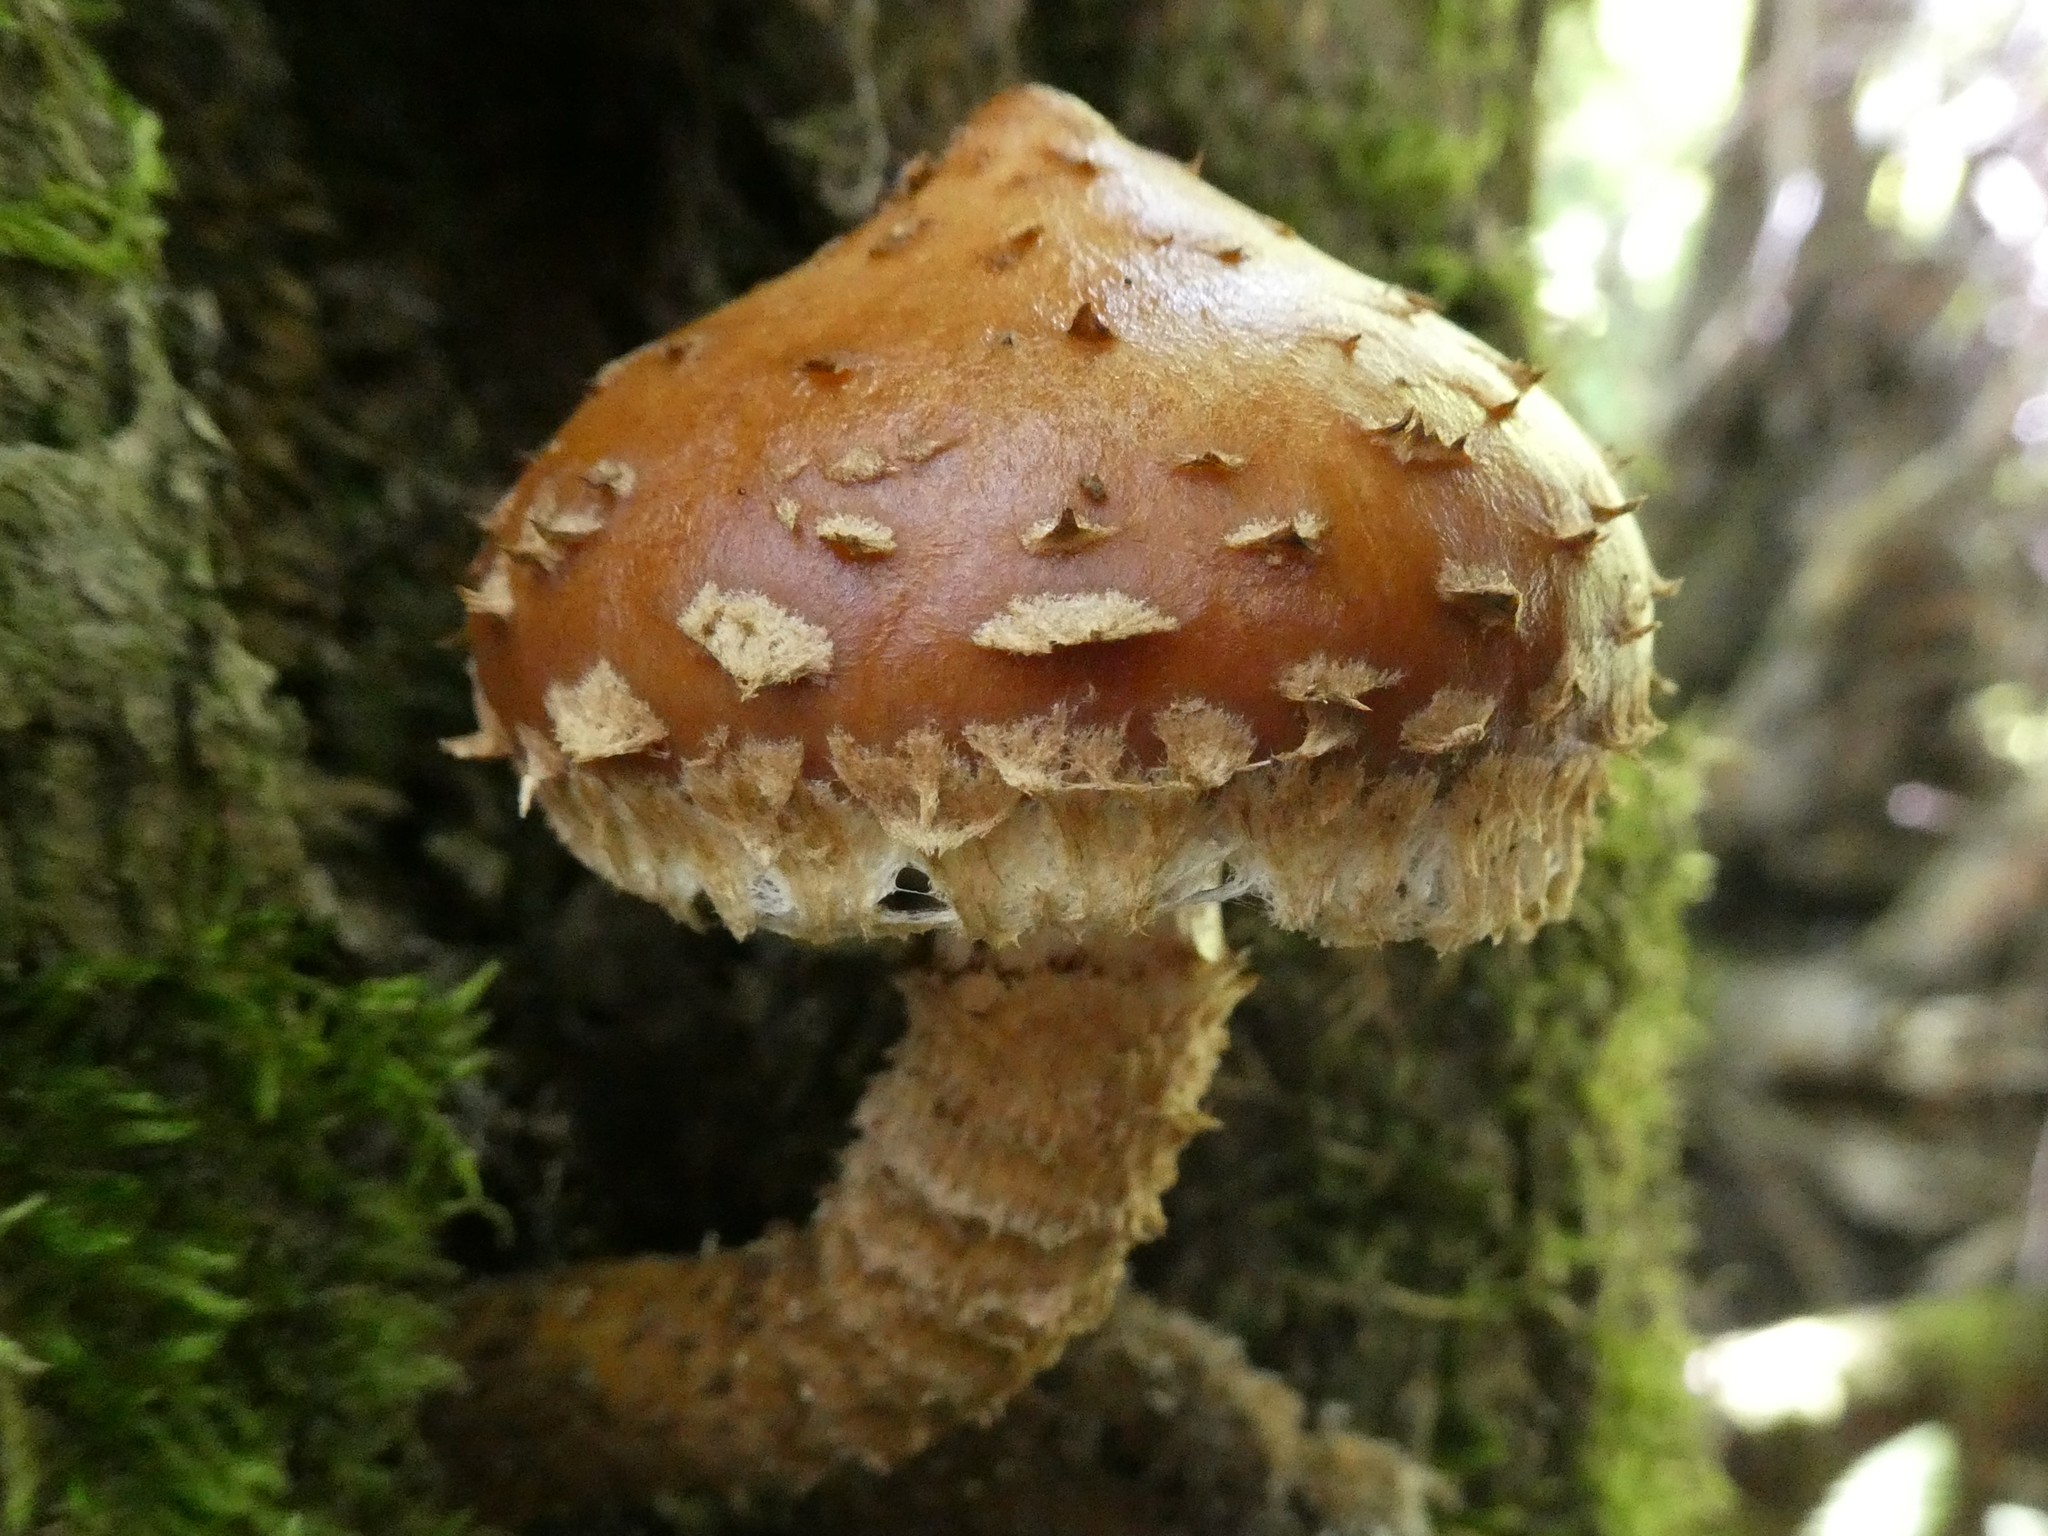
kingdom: Fungi
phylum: Basidiomycota
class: Agaricomycetes
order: Agaricales
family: Tubariaceae
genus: Hemistropharia
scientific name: Hemistropharia albocrenulata
